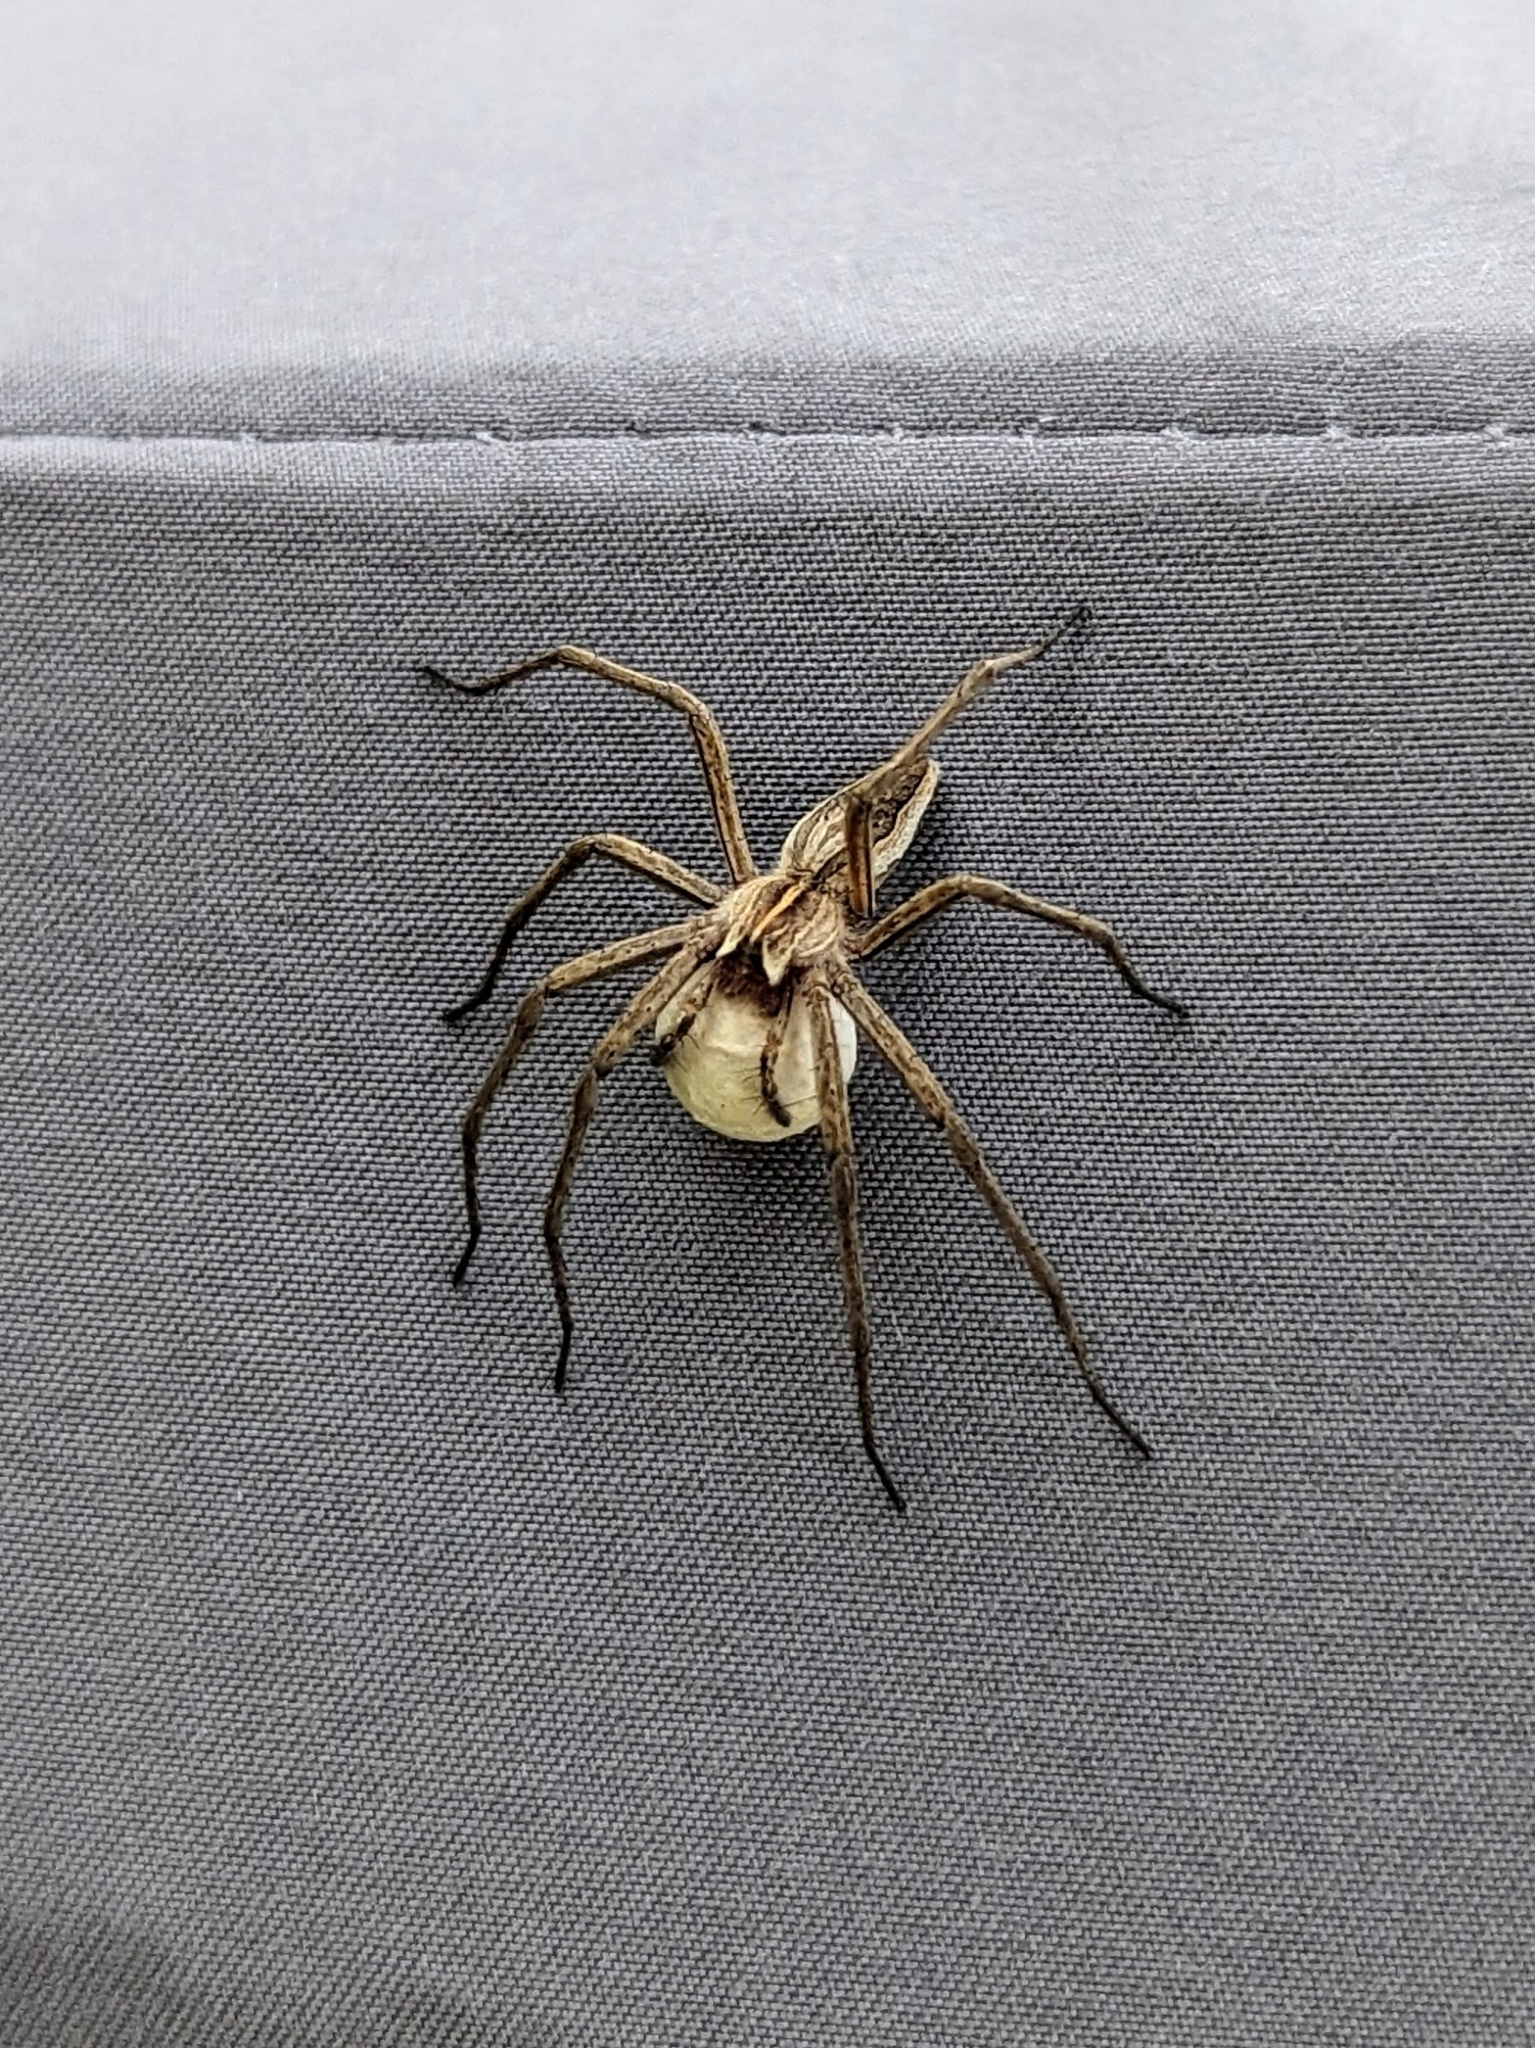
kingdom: Animalia
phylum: Arthropoda
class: Arachnida
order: Araneae
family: Pisauridae
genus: Pisaura
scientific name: Pisaura mirabilis
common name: Tent spider
